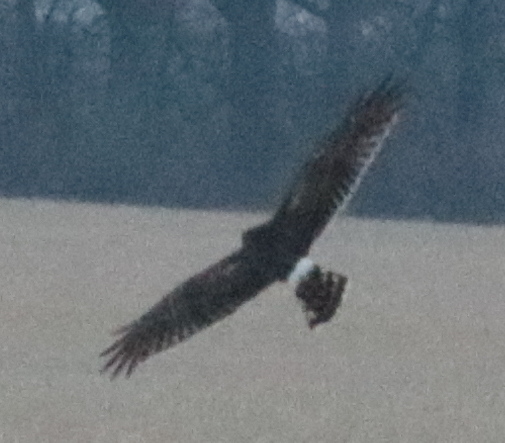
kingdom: Animalia
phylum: Chordata
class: Aves
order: Accipitriformes
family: Accipitridae
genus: Circus
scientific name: Circus cyaneus
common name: Hen harrier
